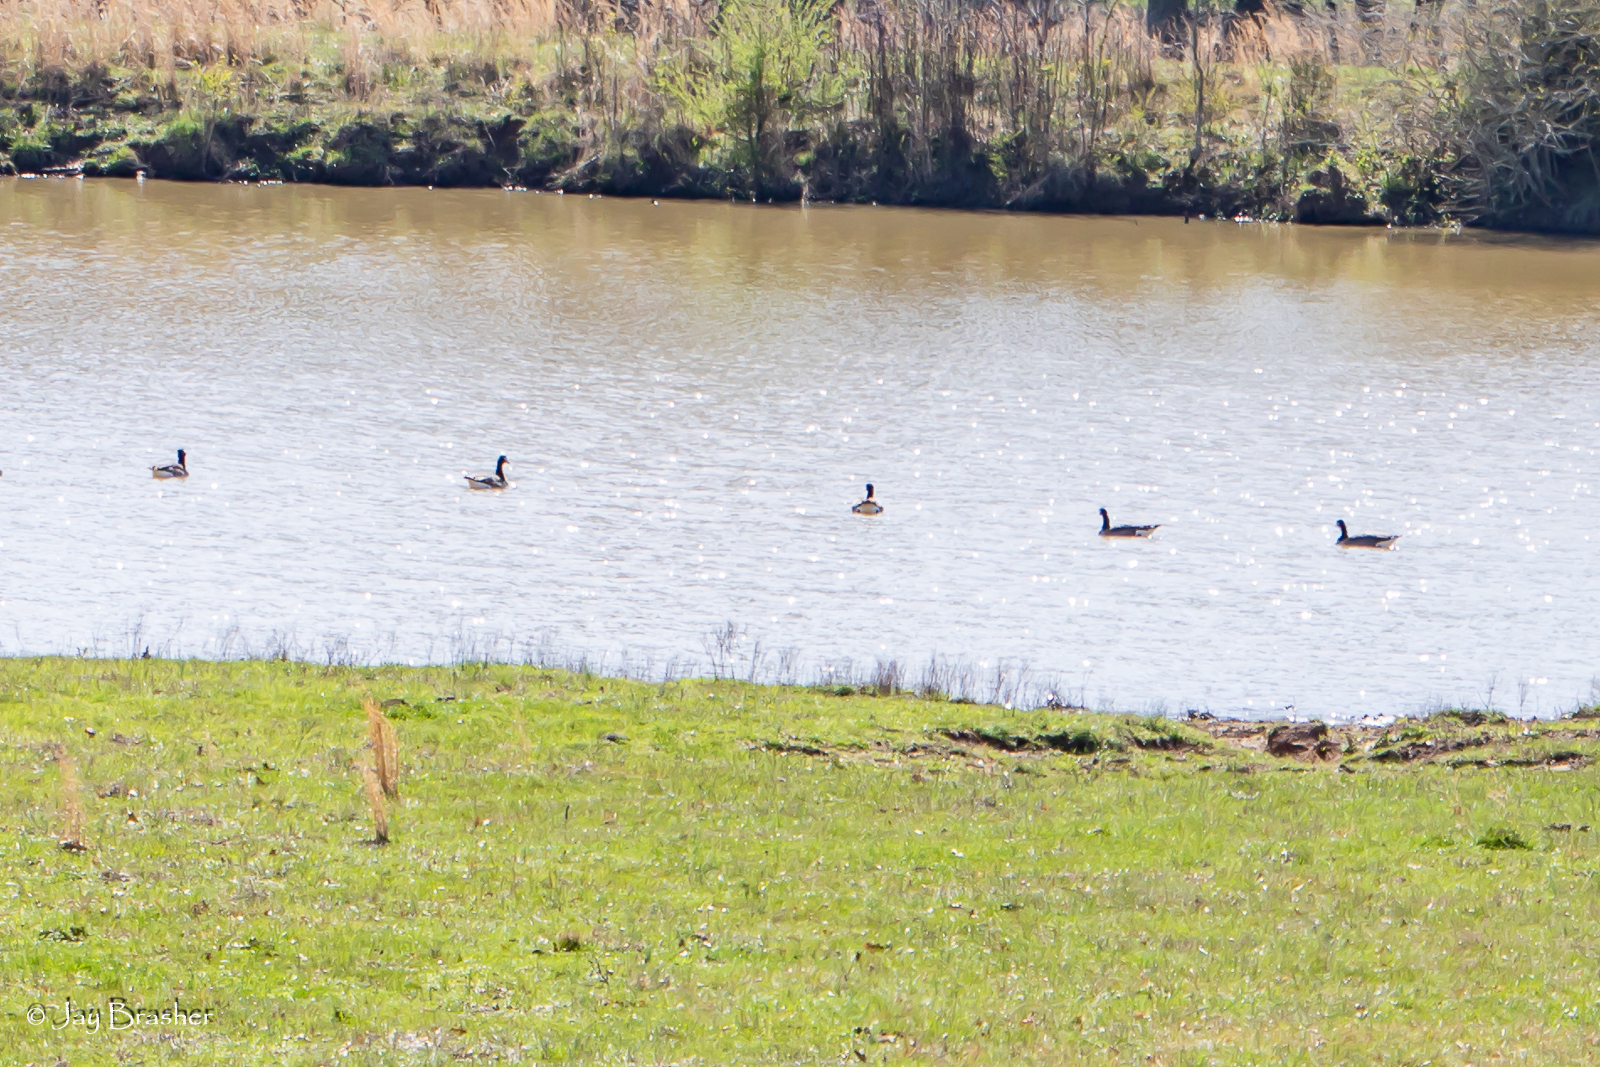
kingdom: Animalia
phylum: Chordata
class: Aves
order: Anseriformes
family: Anatidae
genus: Branta
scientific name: Branta canadensis
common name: Canada goose
